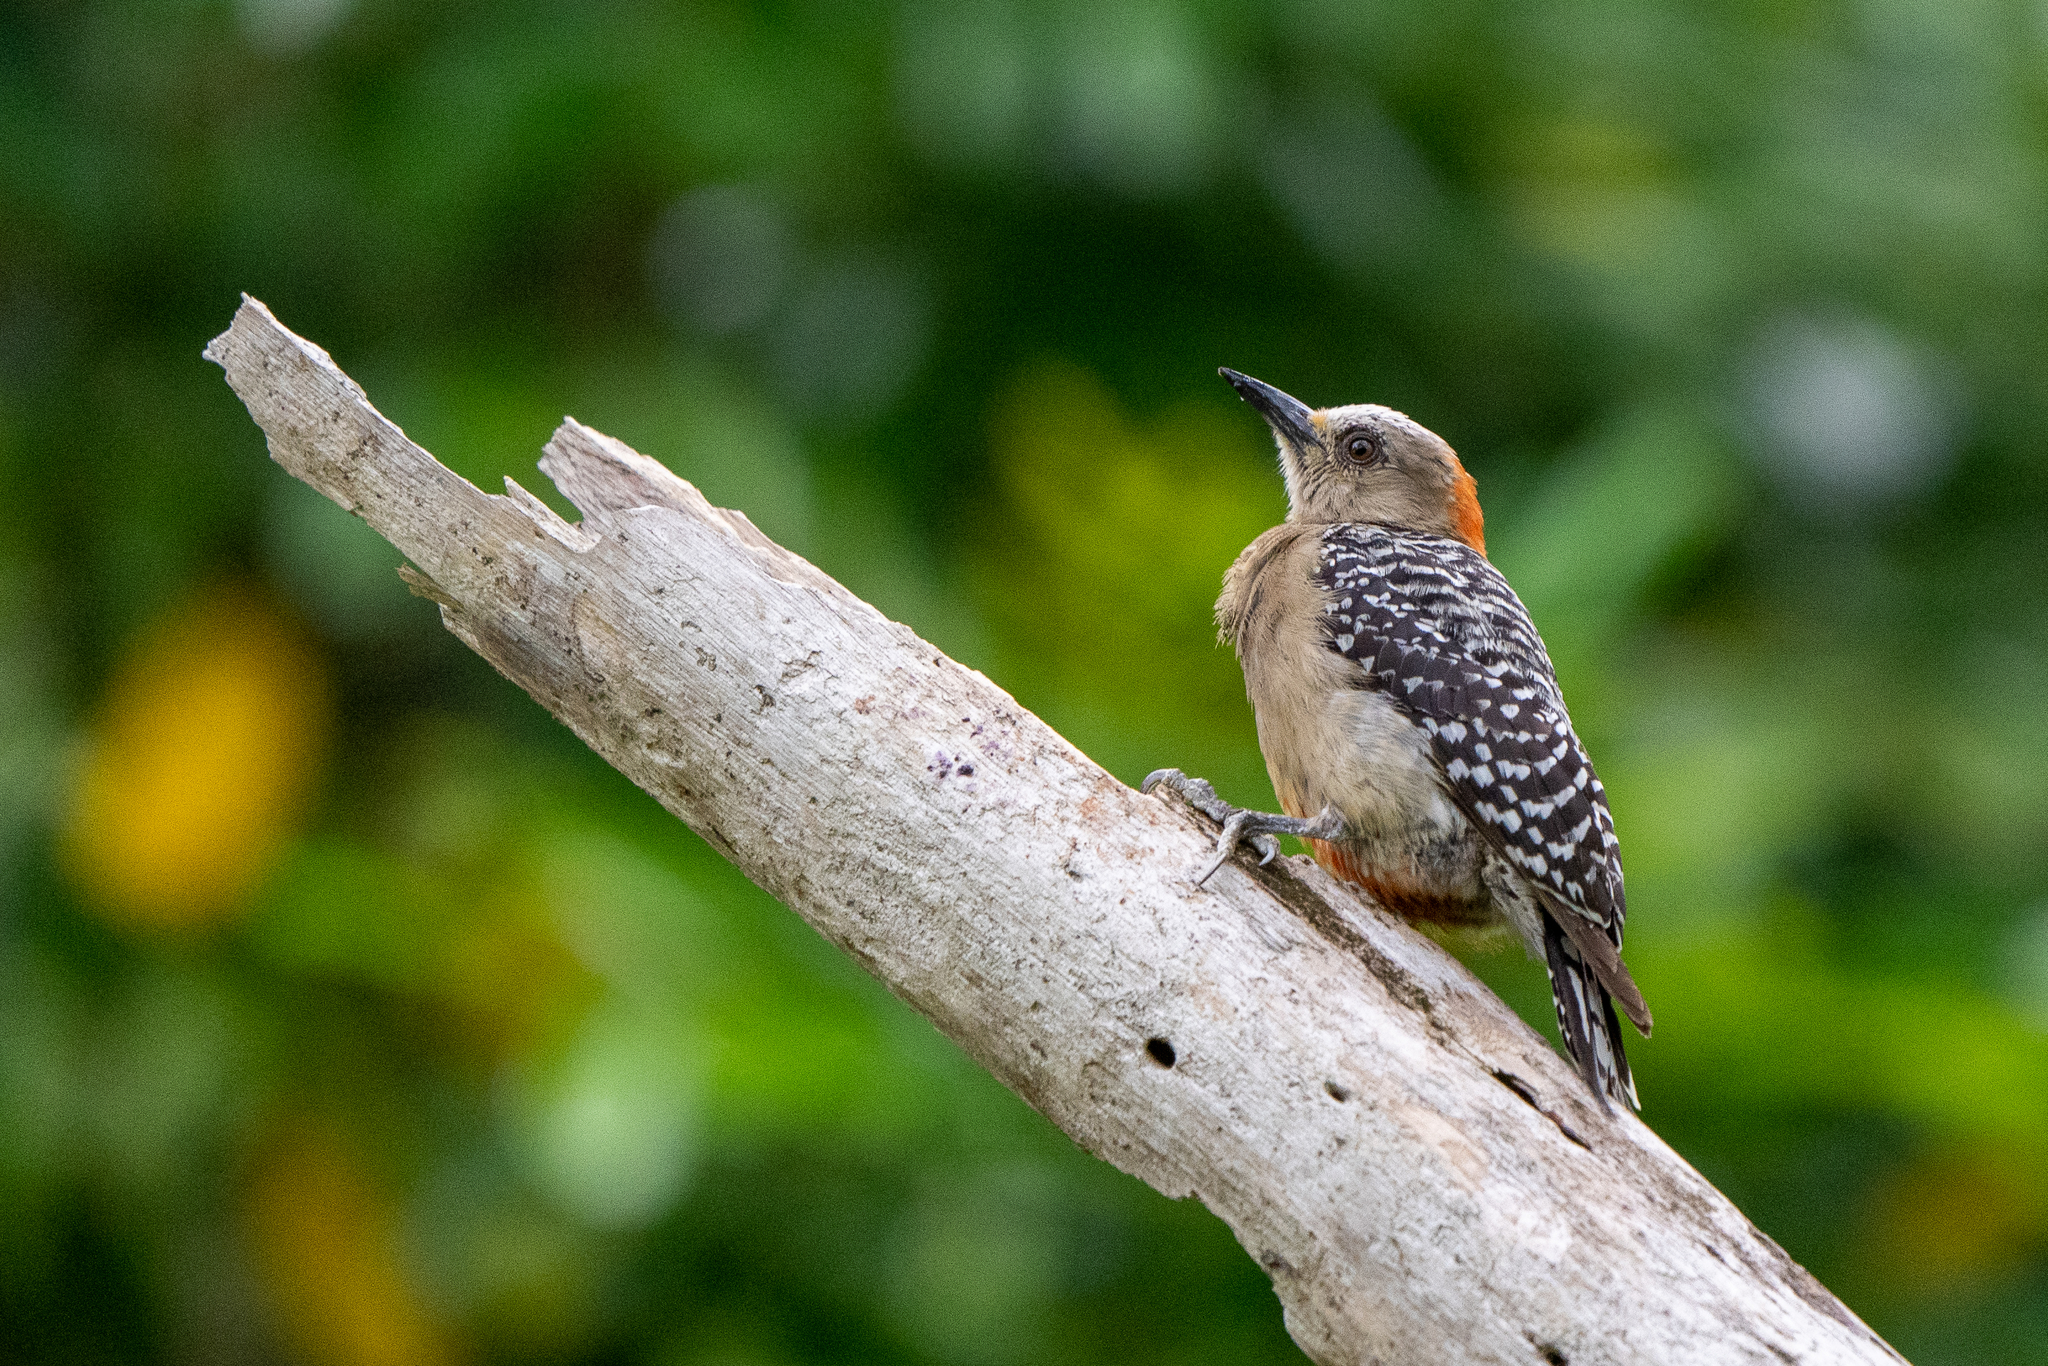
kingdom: Animalia
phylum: Chordata
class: Aves
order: Piciformes
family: Picidae
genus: Melanerpes
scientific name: Melanerpes rubricapillus
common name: Red-crowned woodpecker
